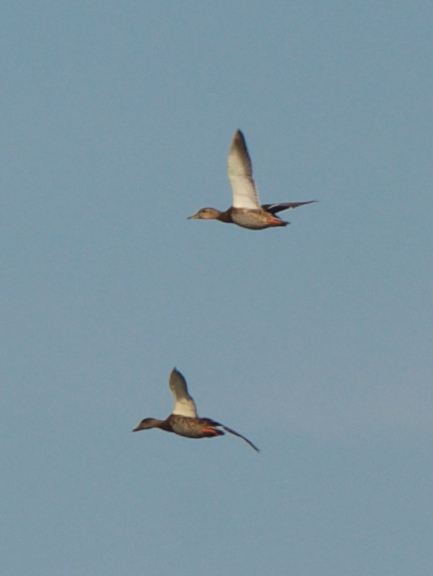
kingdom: Animalia
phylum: Chordata
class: Aves
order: Anseriformes
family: Anatidae
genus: Anas
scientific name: Anas platyrhynchos
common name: Mallard
